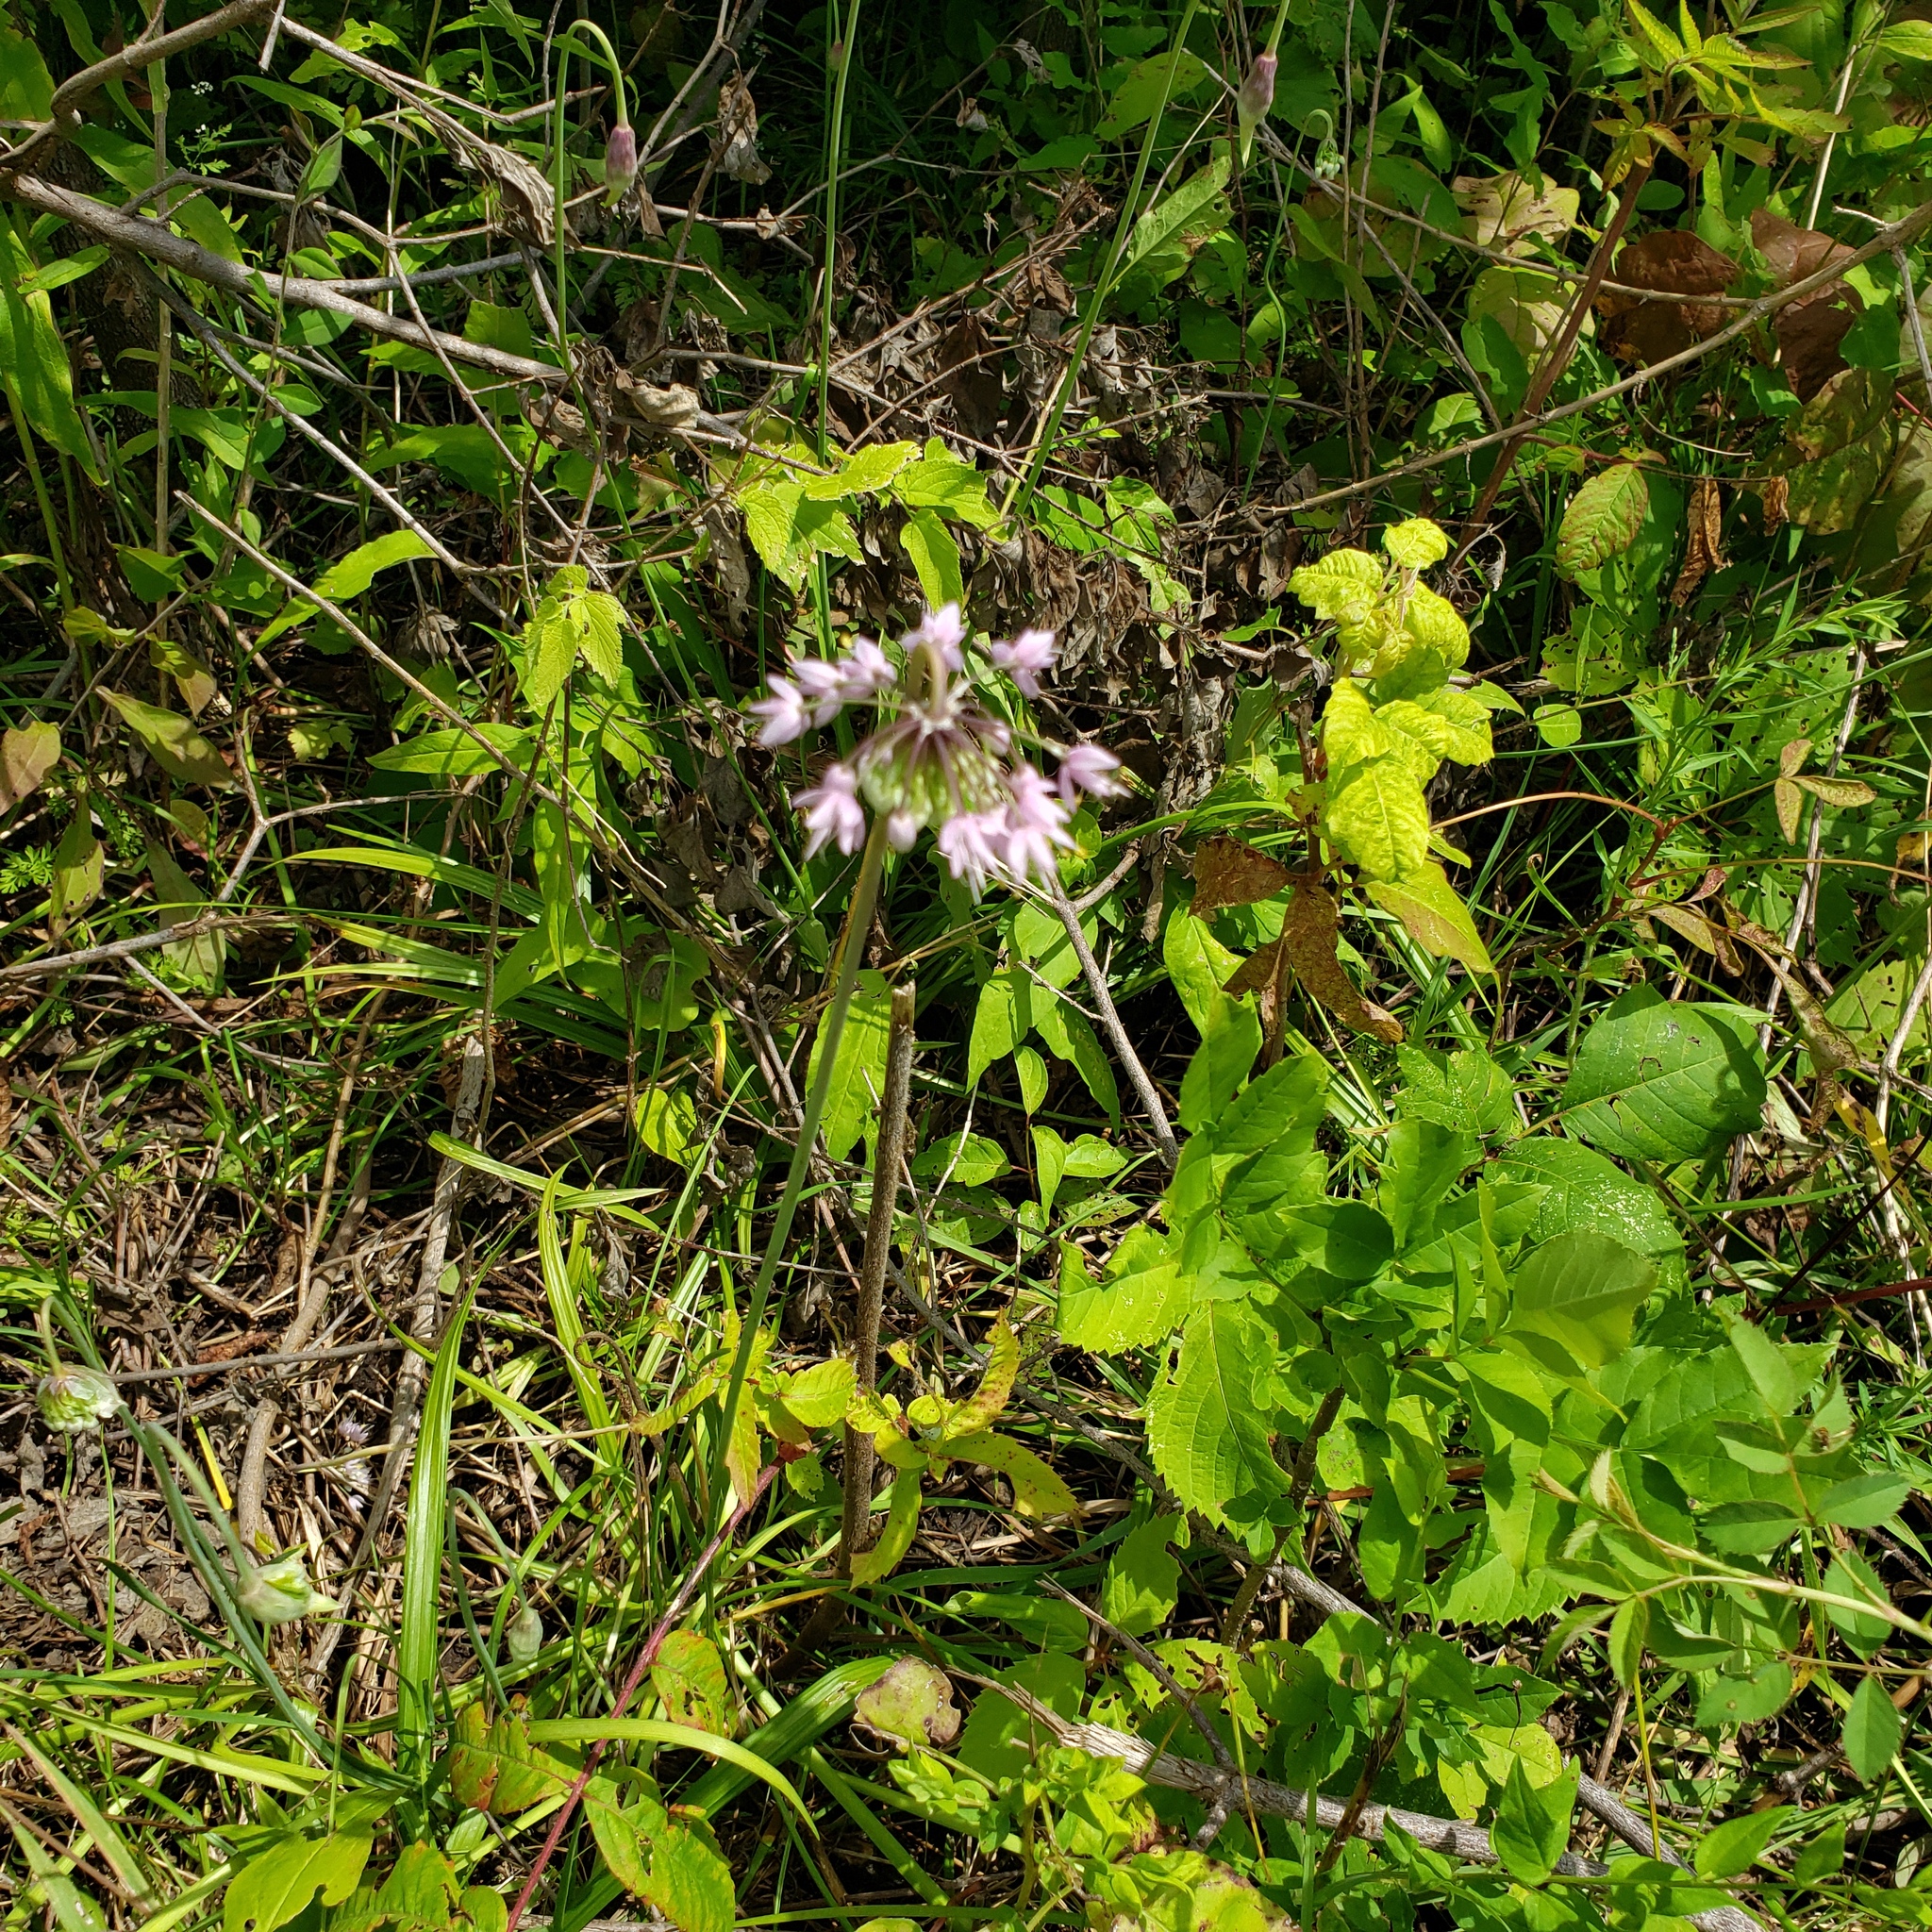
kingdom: Plantae
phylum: Tracheophyta
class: Liliopsida
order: Asparagales
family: Amaryllidaceae
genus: Allium
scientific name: Allium cernuum
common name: Nodding onion
